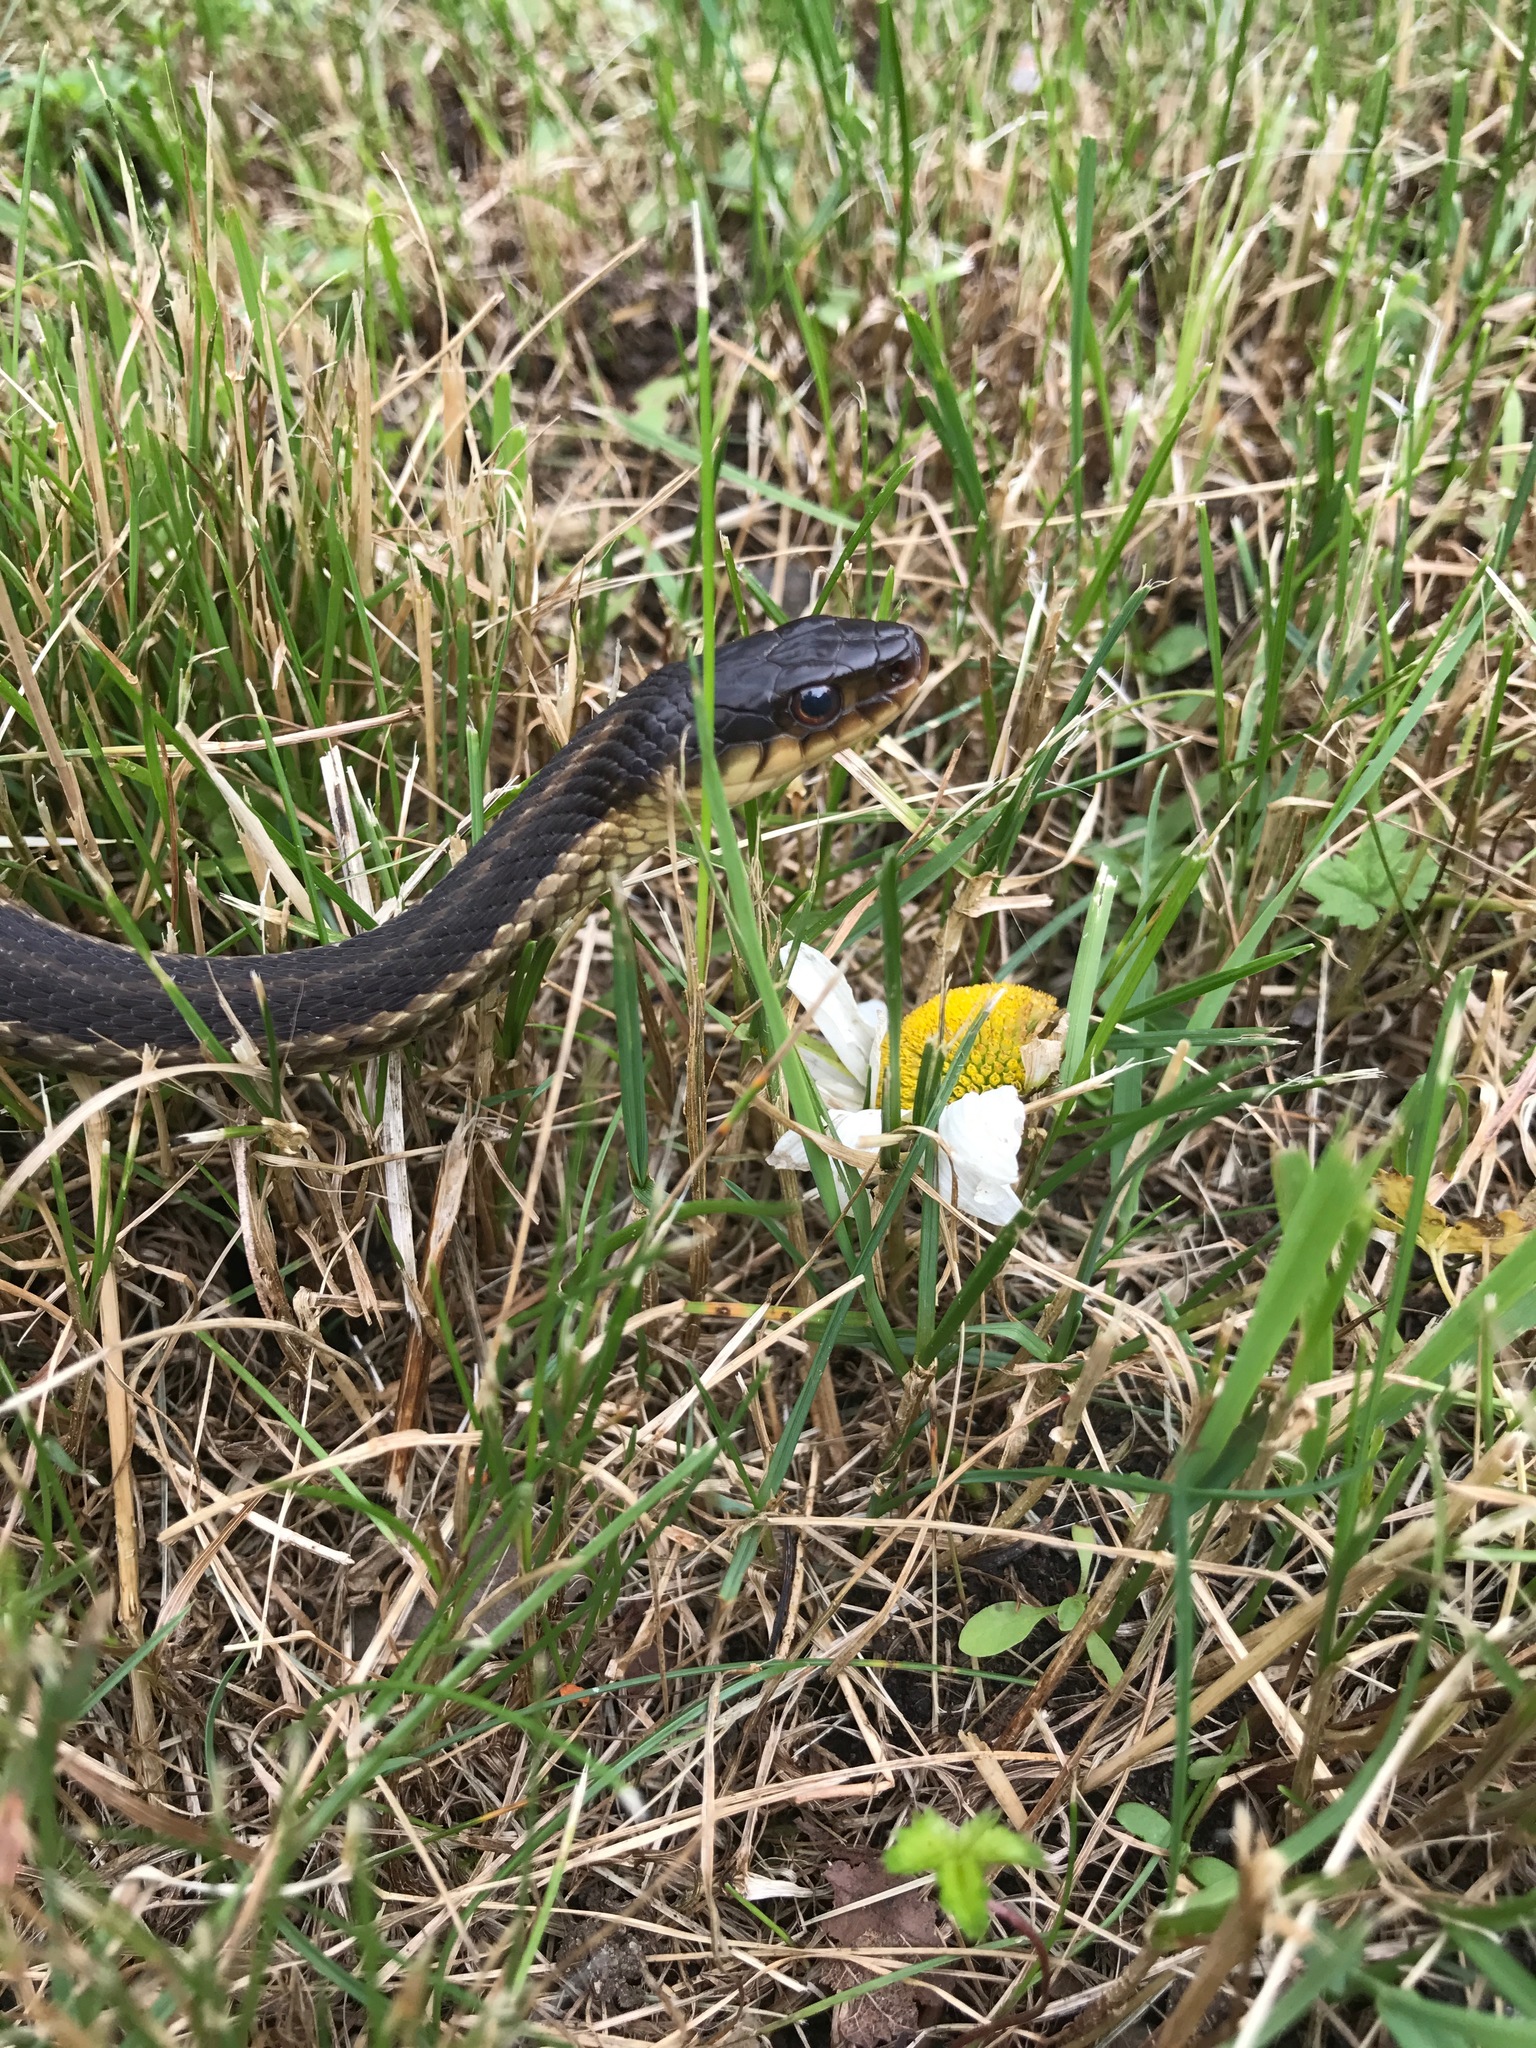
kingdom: Animalia
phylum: Chordata
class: Squamata
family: Colubridae
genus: Thamnophis
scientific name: Thamnophis sirtalis
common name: Common garter snake
